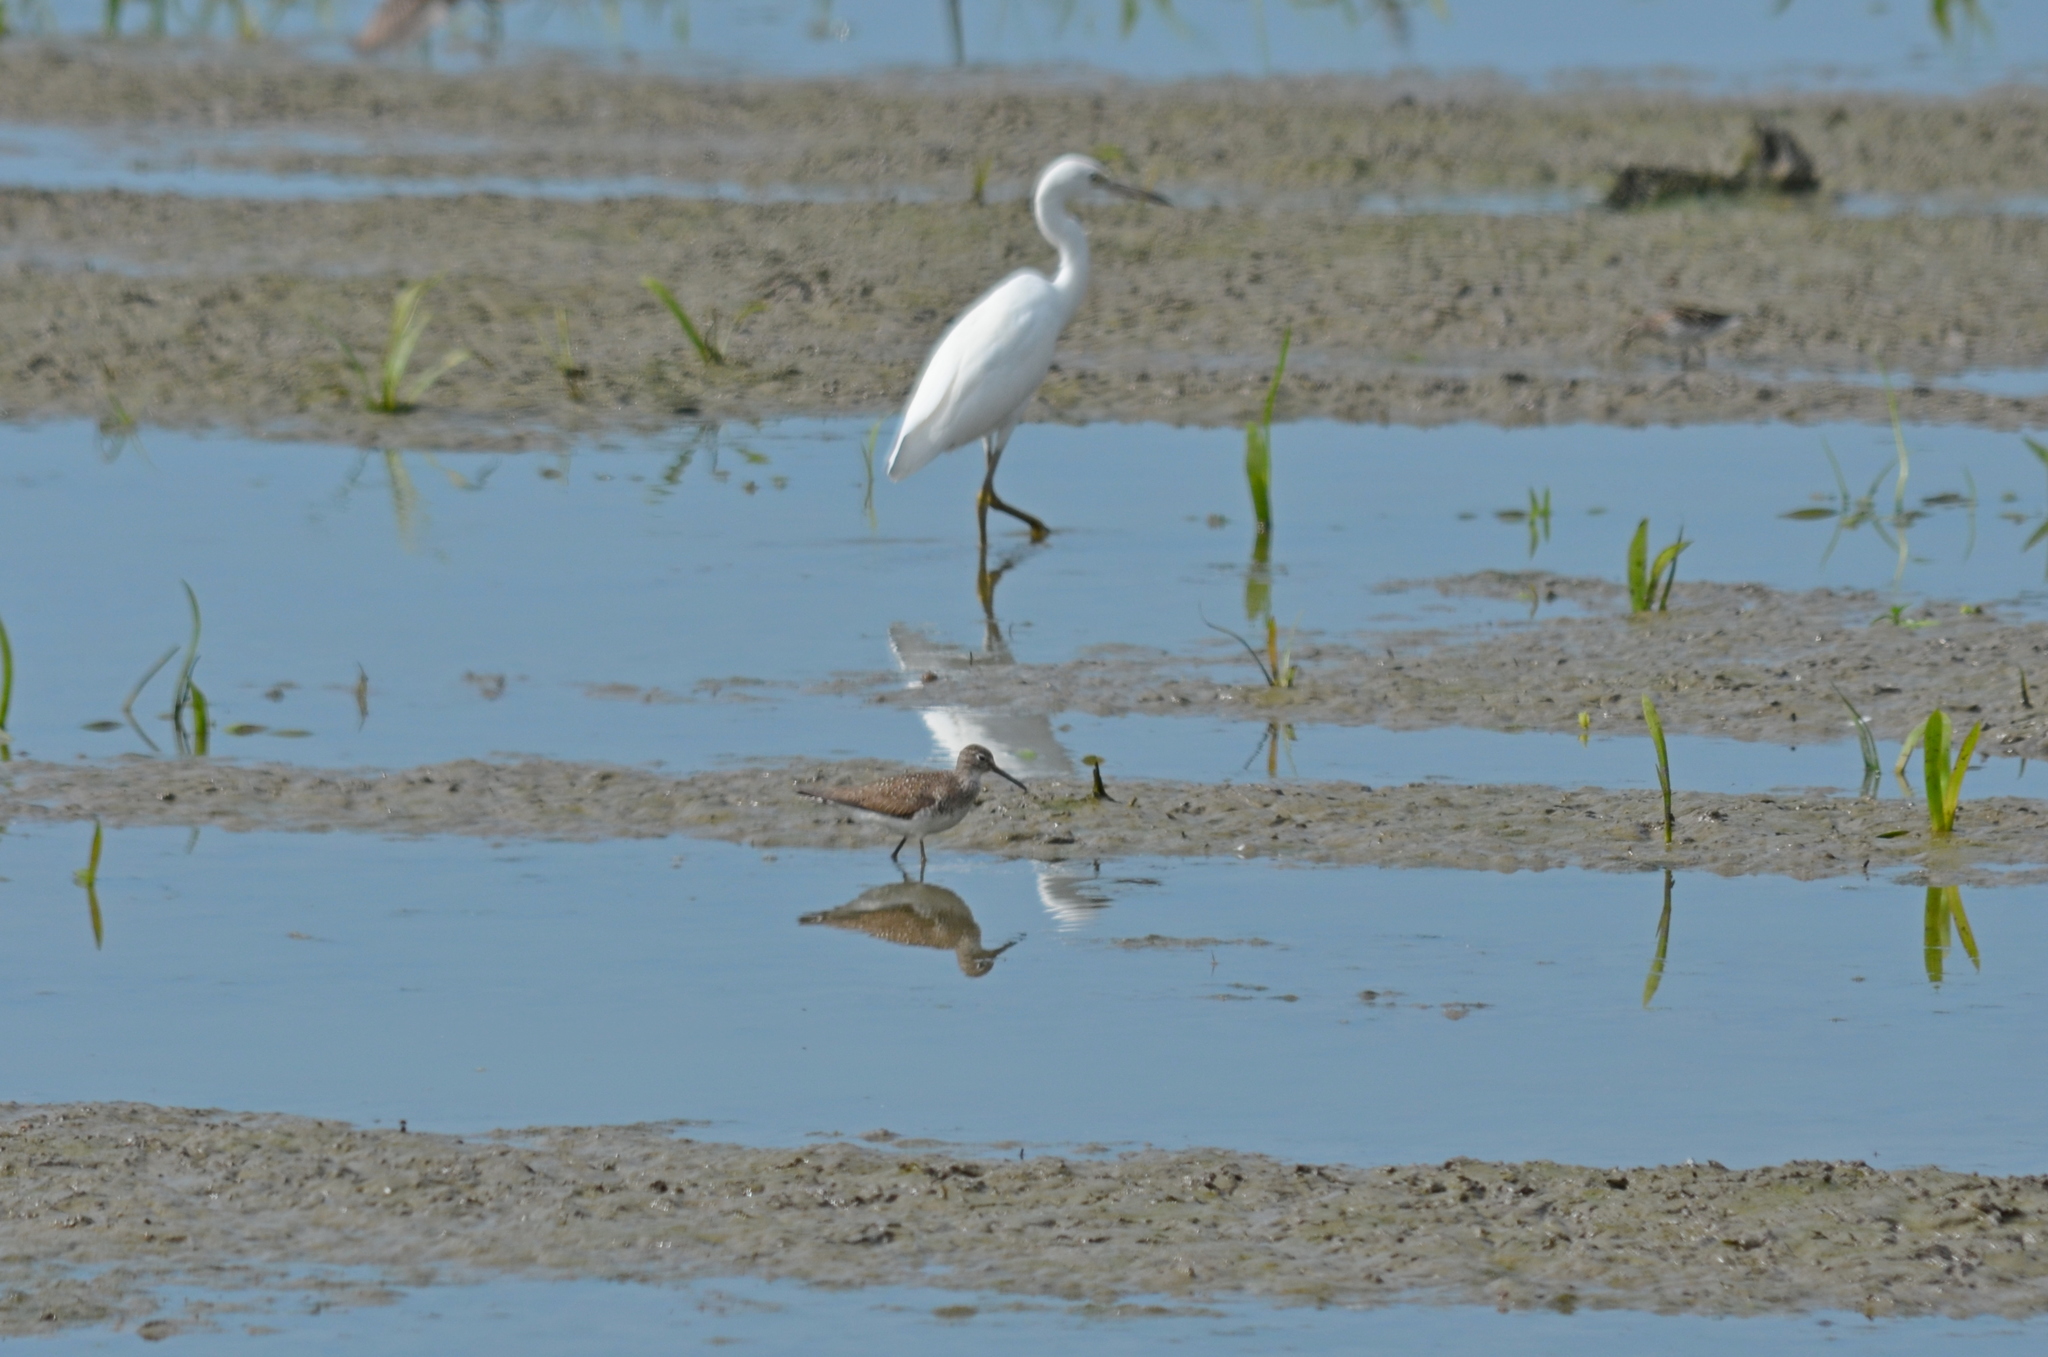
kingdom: Animalia
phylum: Chordata
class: Aves
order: Charadriiformes
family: Scolopacidae
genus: Tringa
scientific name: Tringa solitaria
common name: Solitary sandpiper
